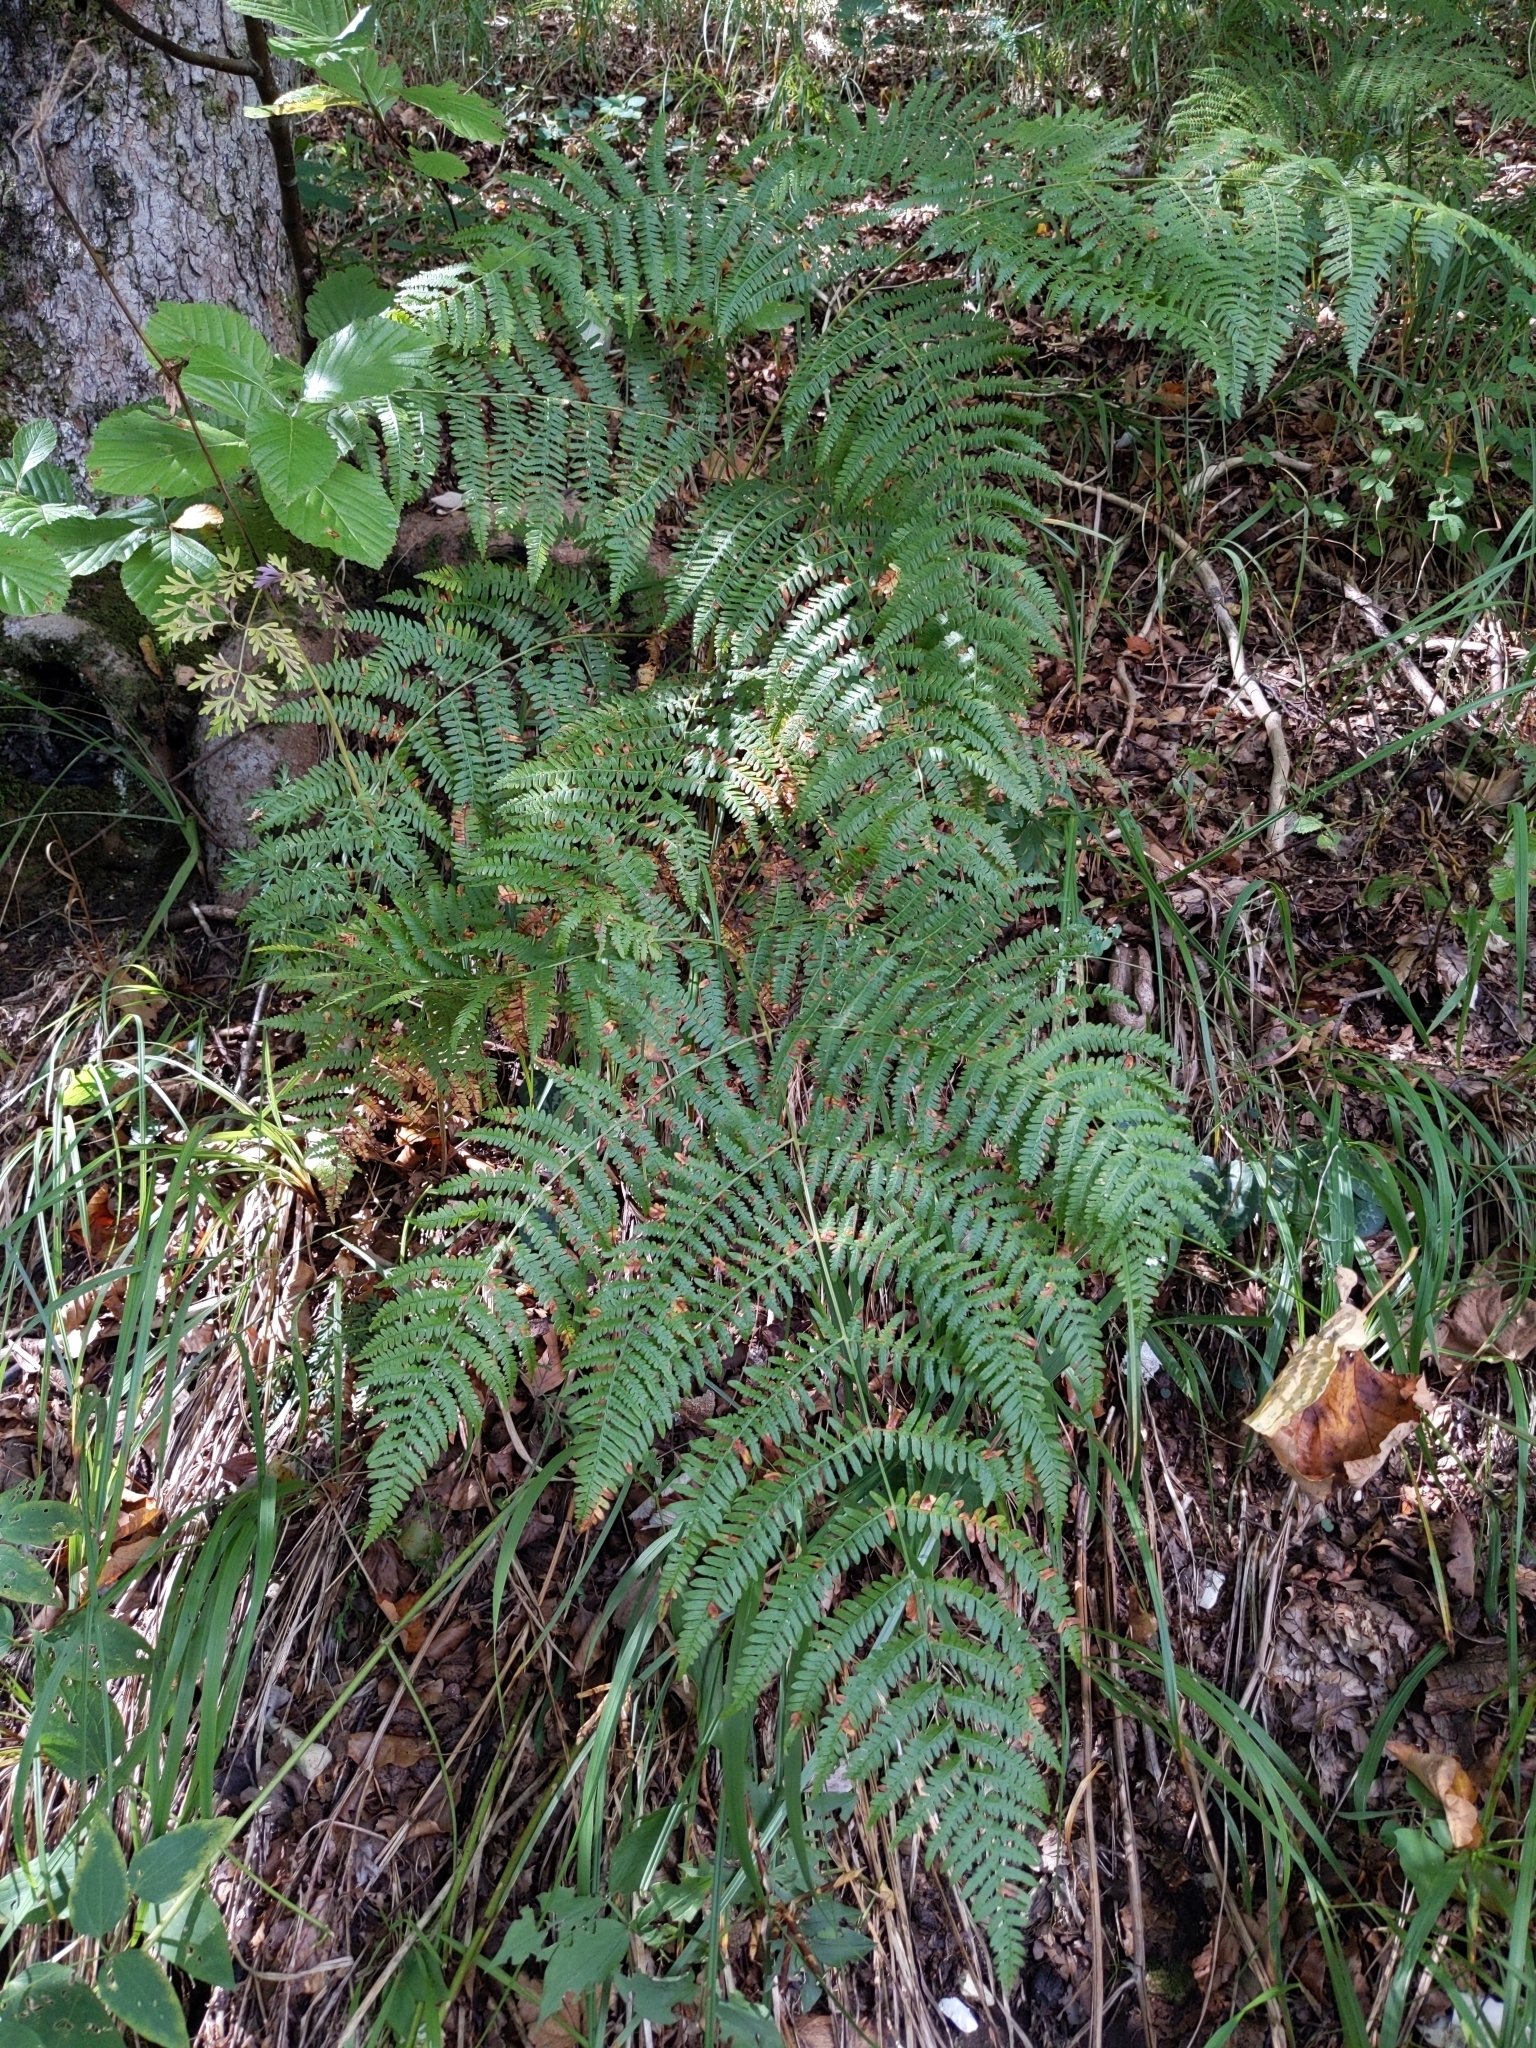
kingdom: Plantae
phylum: Tracheophyta
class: Polypodiopsida
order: Polypodiales
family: Dennstaedtiaceae
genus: Pteridium
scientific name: Pteridium aquilinum
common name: Bracken
